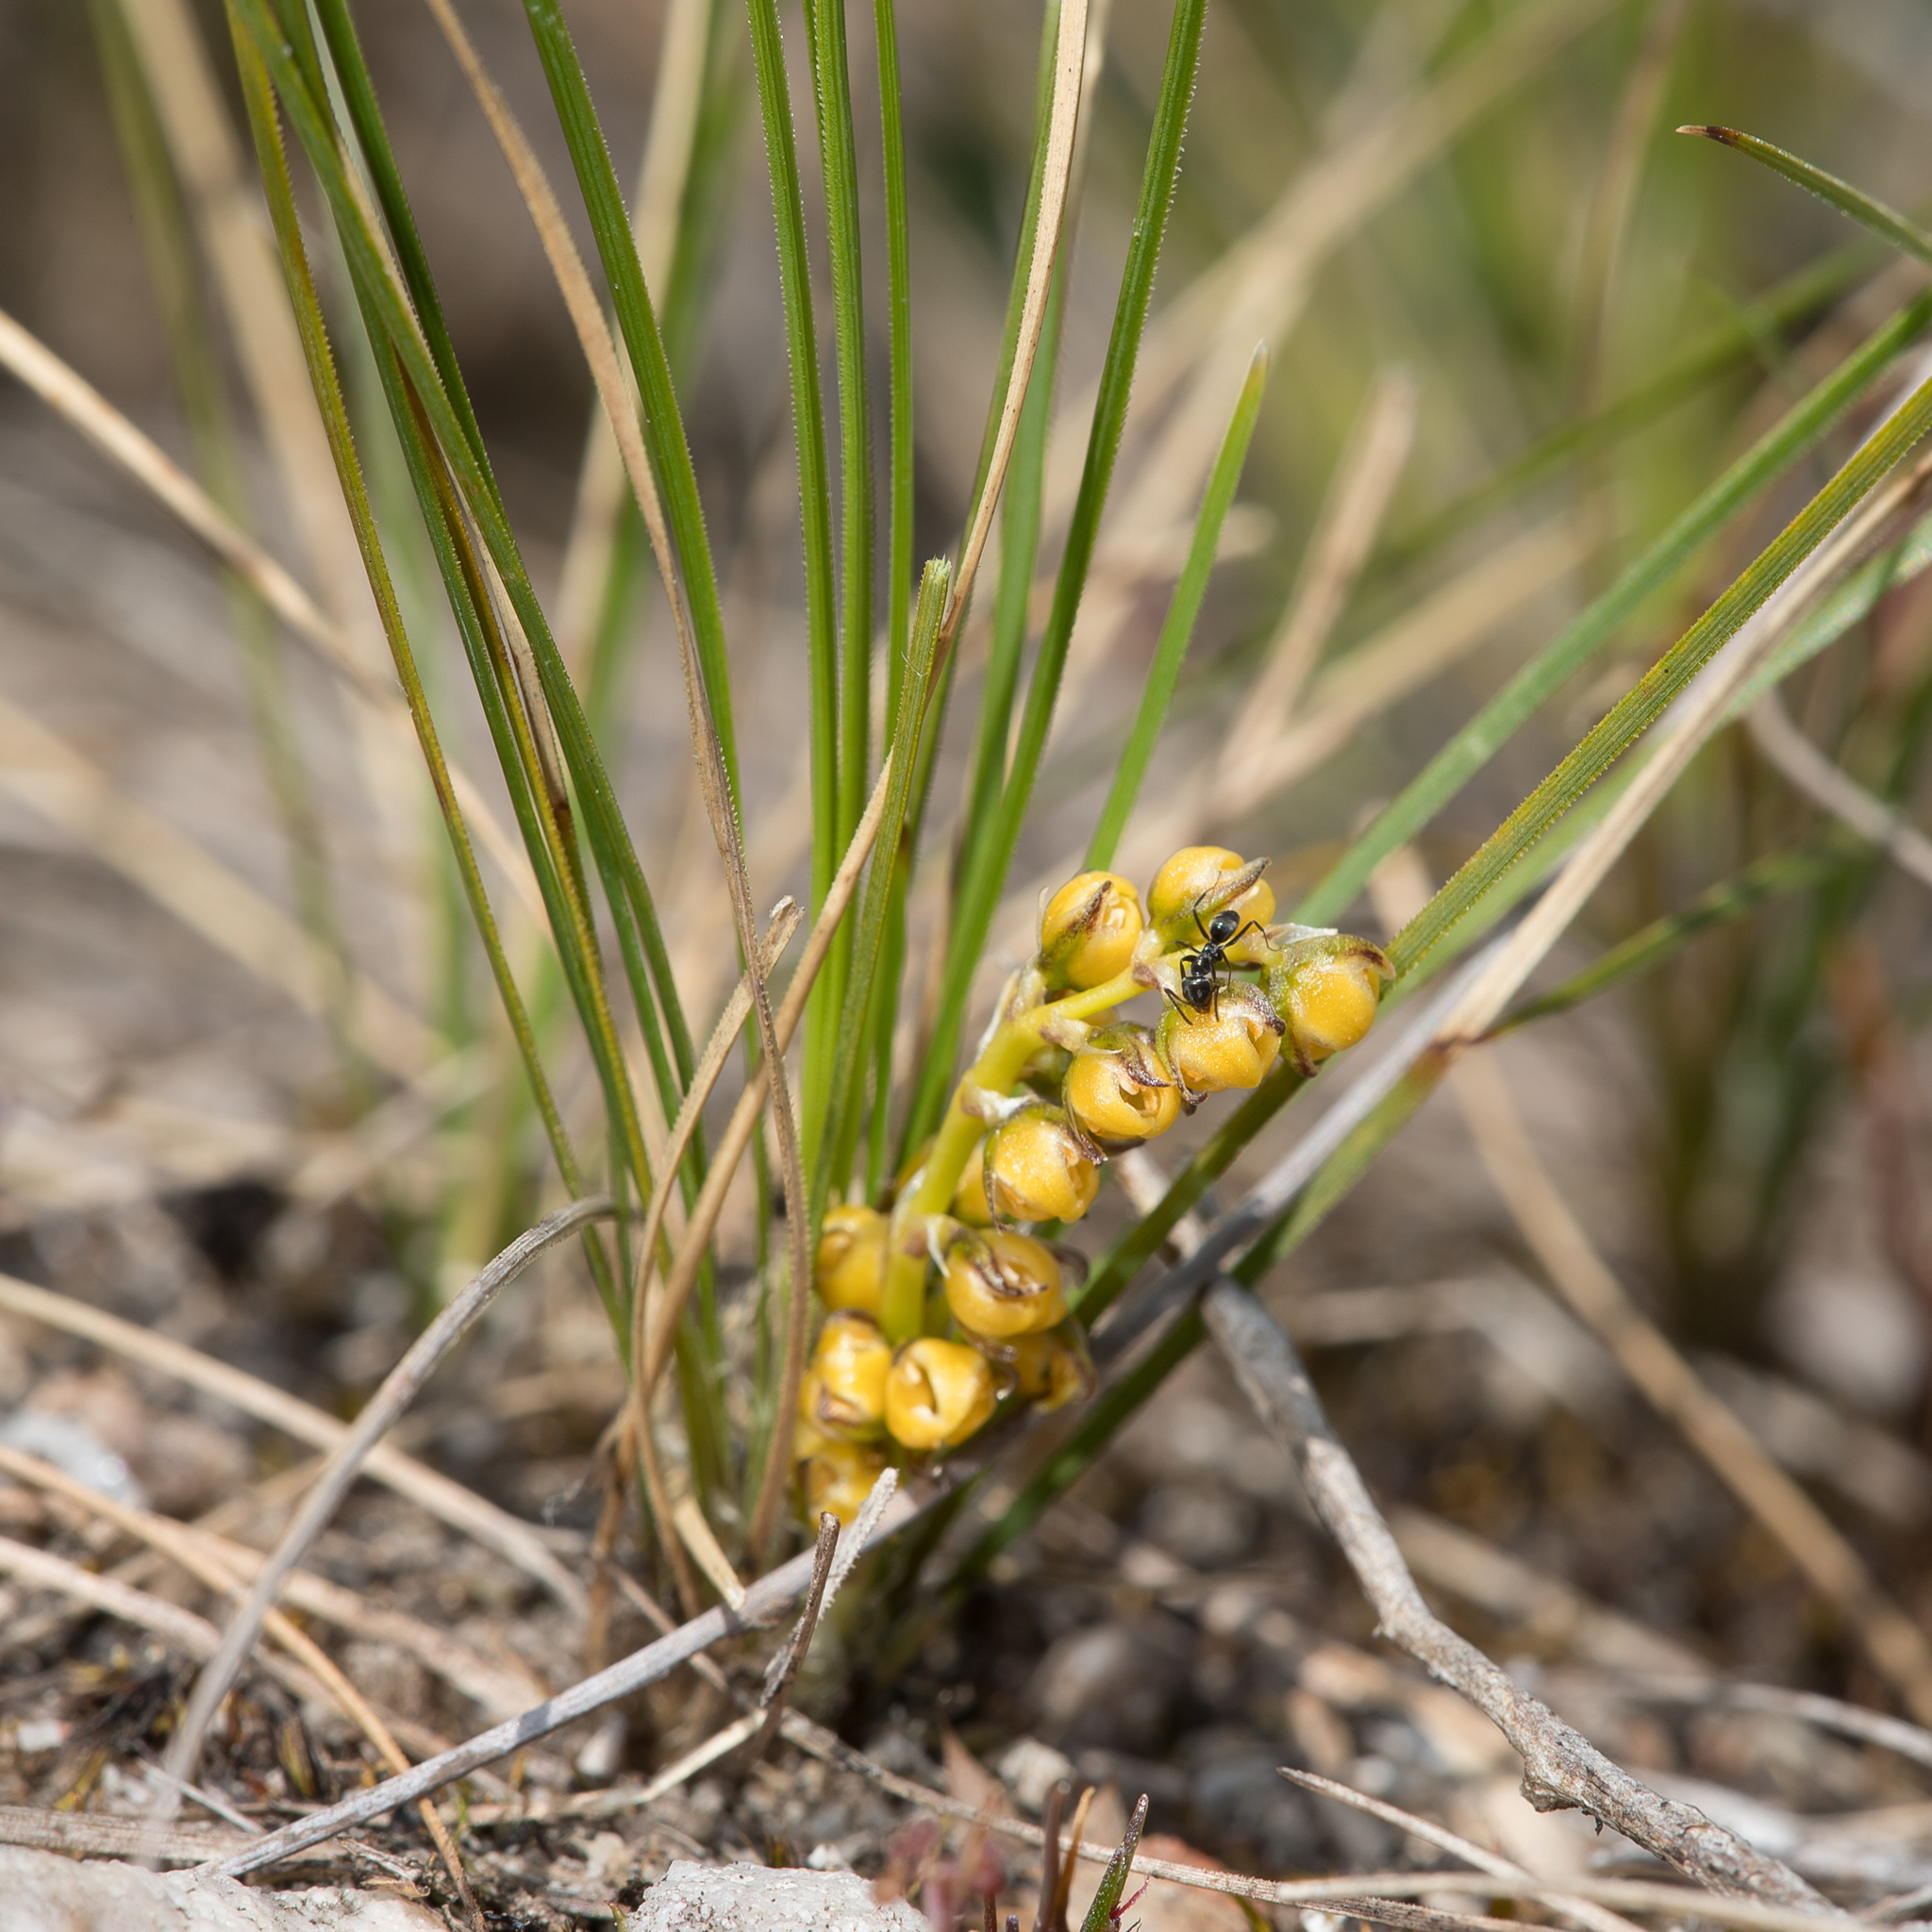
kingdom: Plantae
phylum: Tracheophyta
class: Liliopsida
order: Asparagales
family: Asparagaceae
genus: Lomandra
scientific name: Lomandra fibrata
